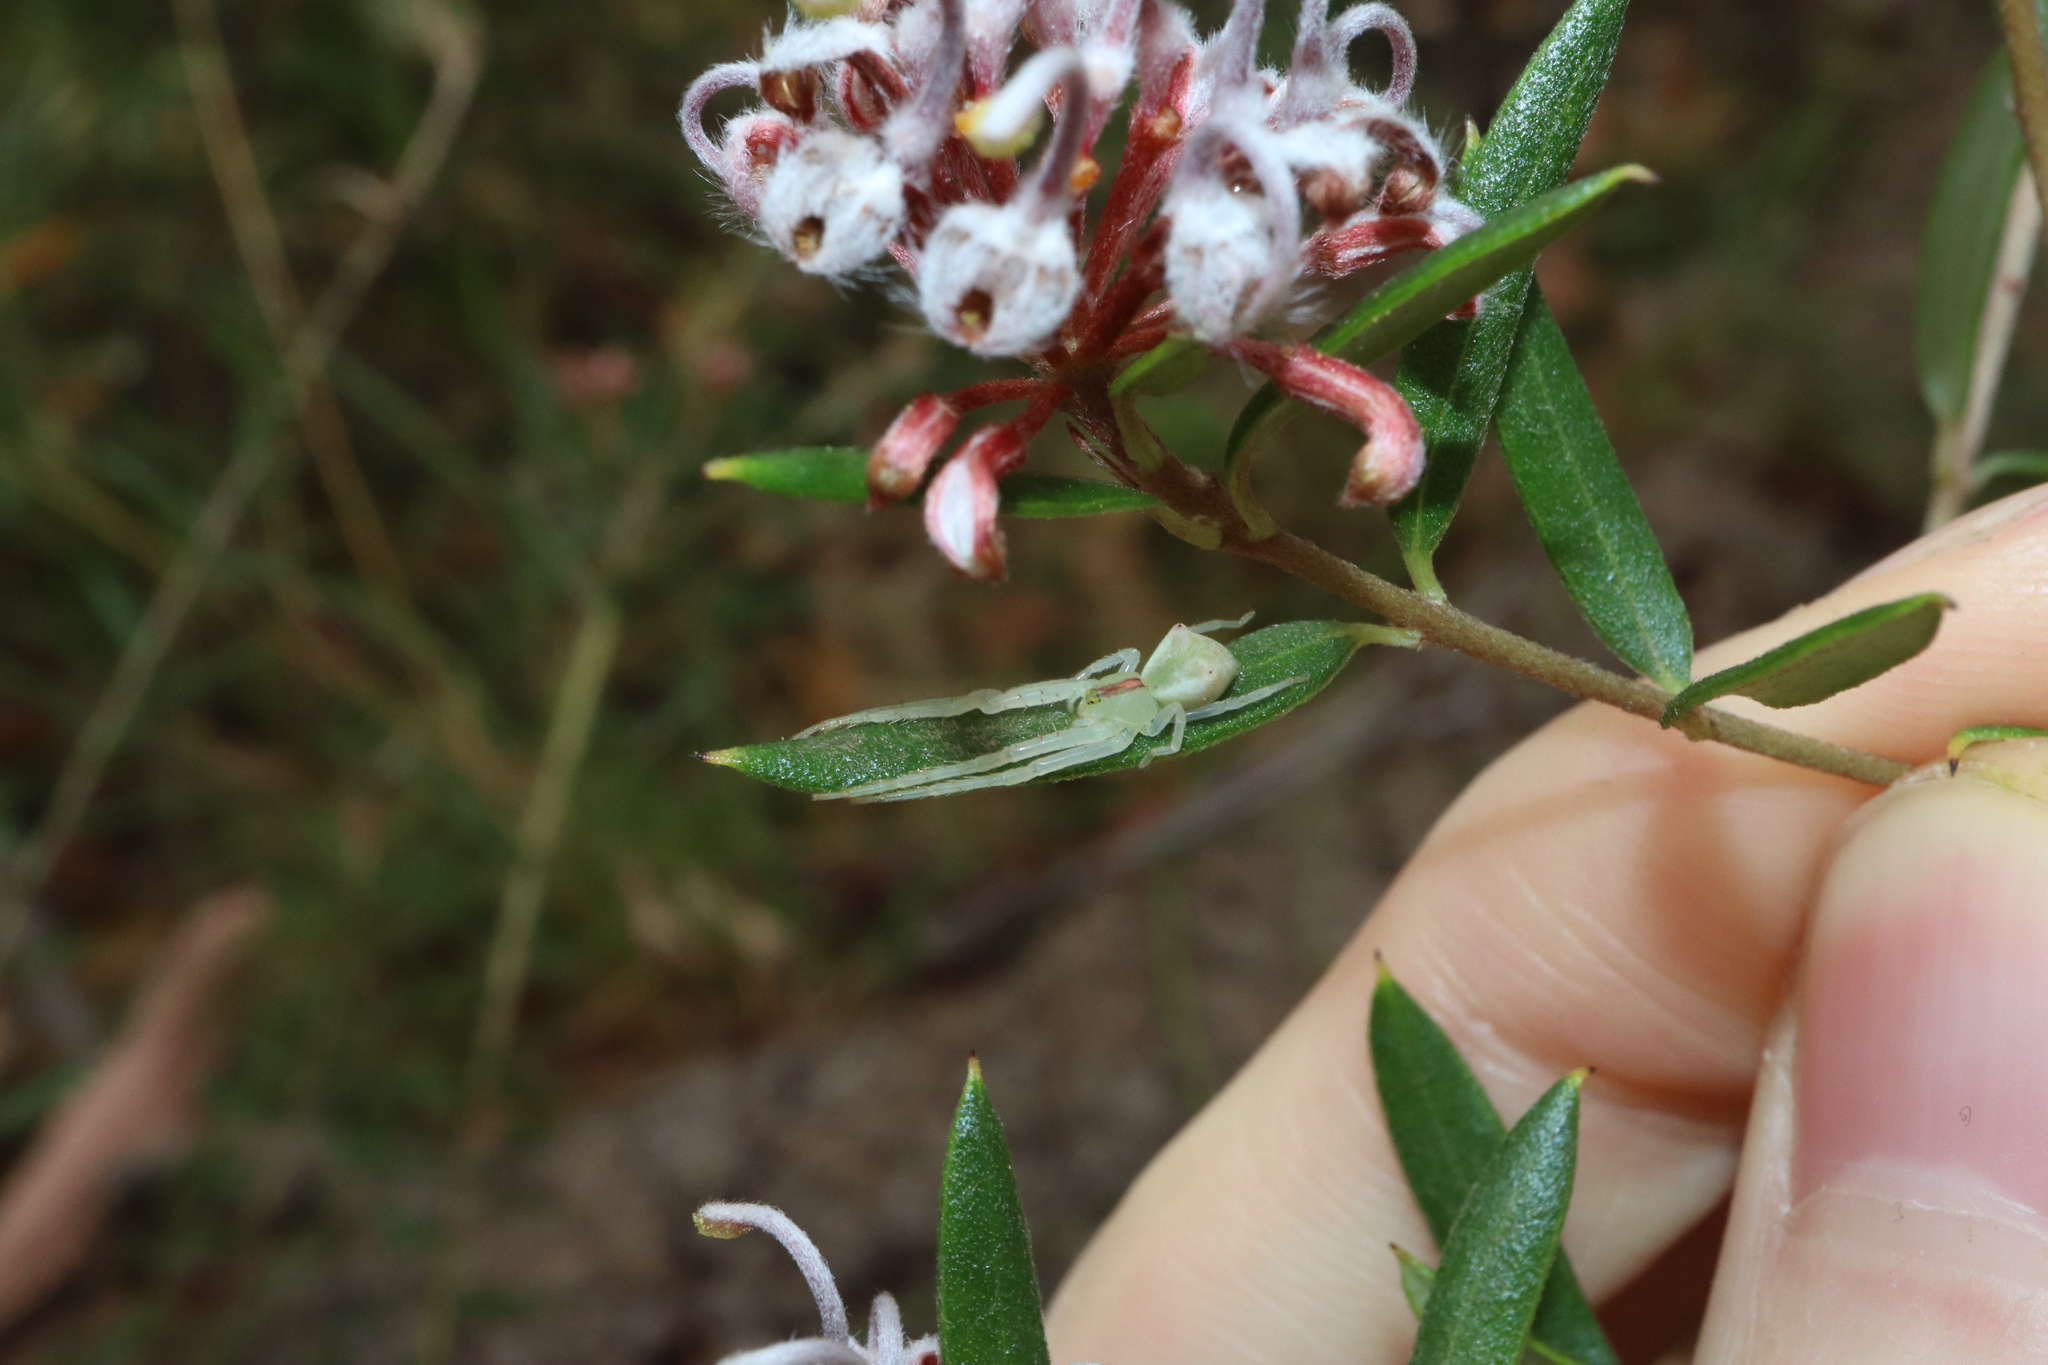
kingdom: Animalia
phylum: Arthropoda
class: Arachnida
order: Araneae
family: Thomisidae
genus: Sidymella
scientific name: Sidymella rubrosignata
